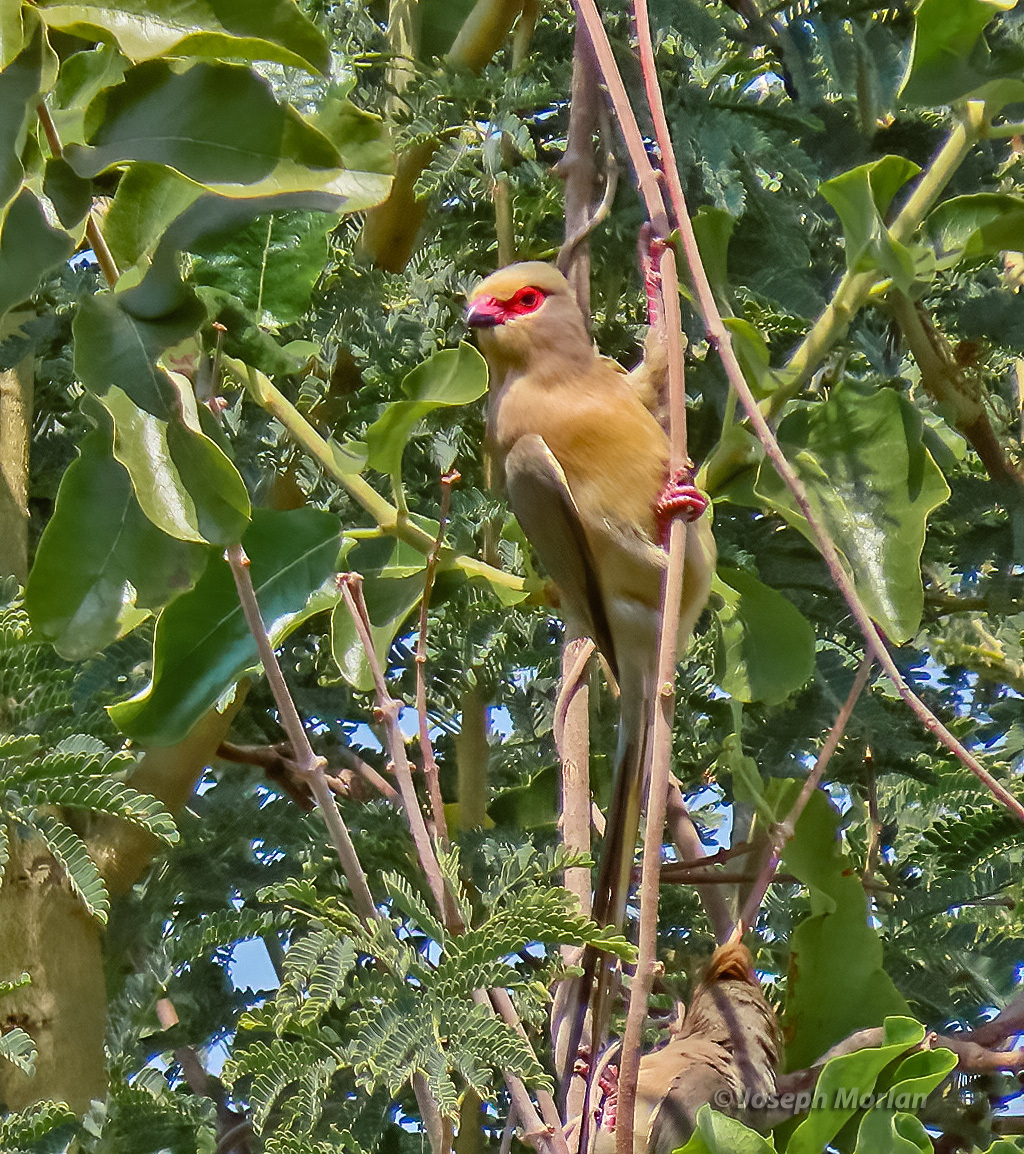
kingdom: Animalia
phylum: Chordata
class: Aves
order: Coliiformes
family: Coliidae
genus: Urocolius
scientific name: Urocolius indicus
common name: Red-faced mousebird
